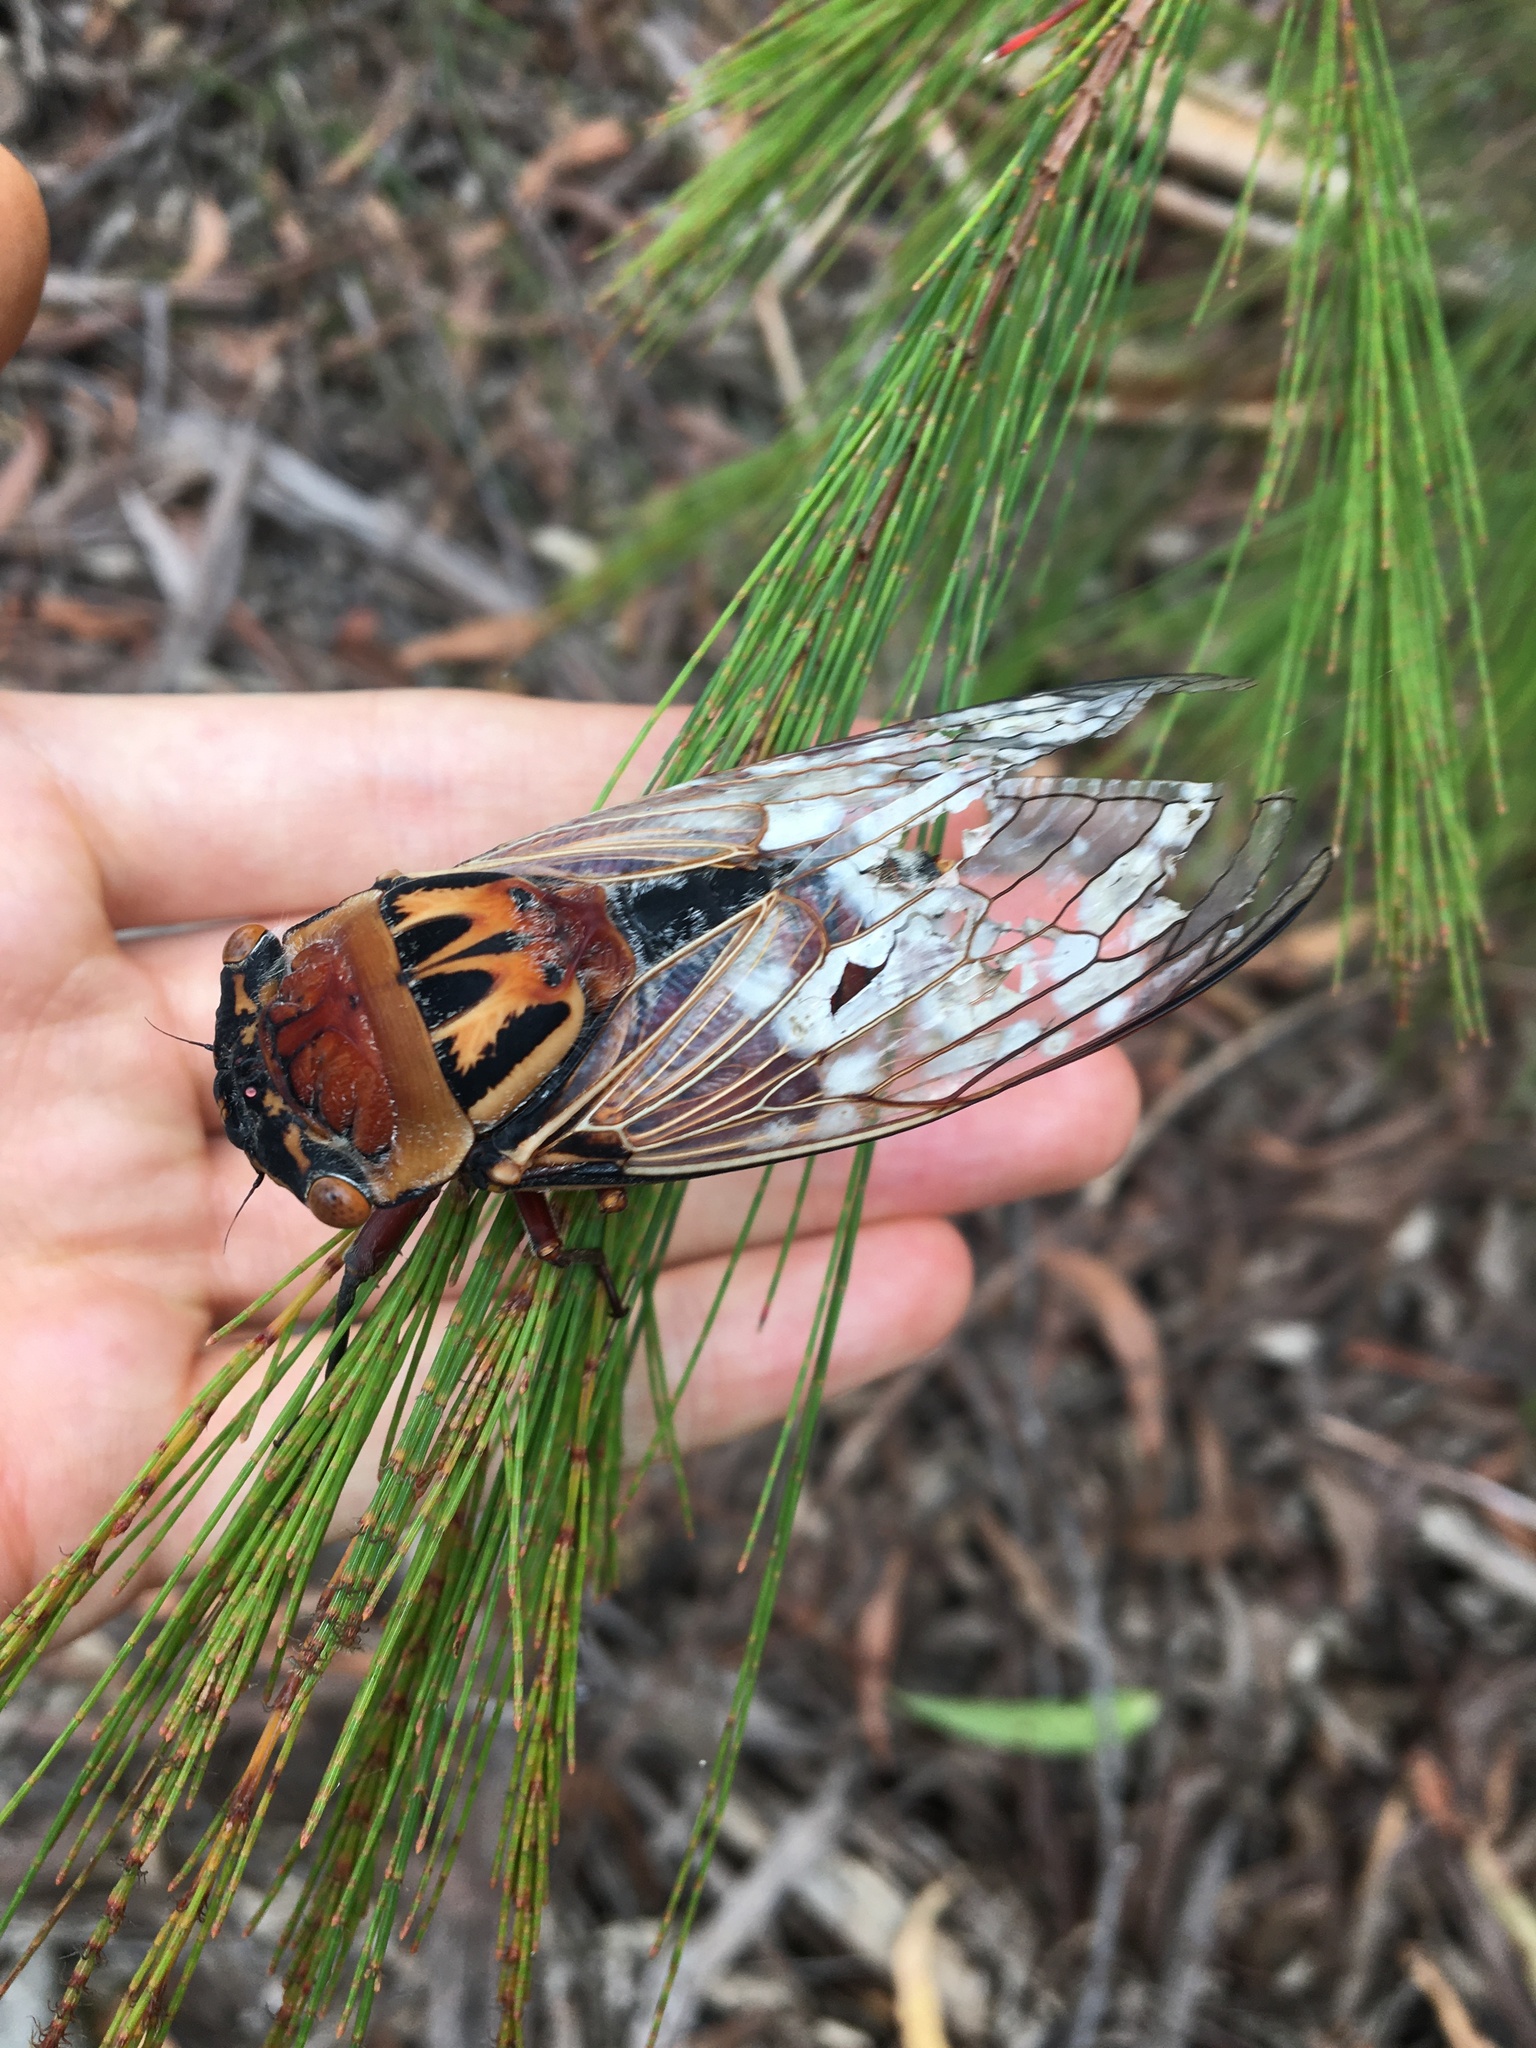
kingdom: Animalia
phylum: Arthropoda
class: Insecta
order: Hemiptera
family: Cicadidae
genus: Thopha
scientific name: Thopha saccata
